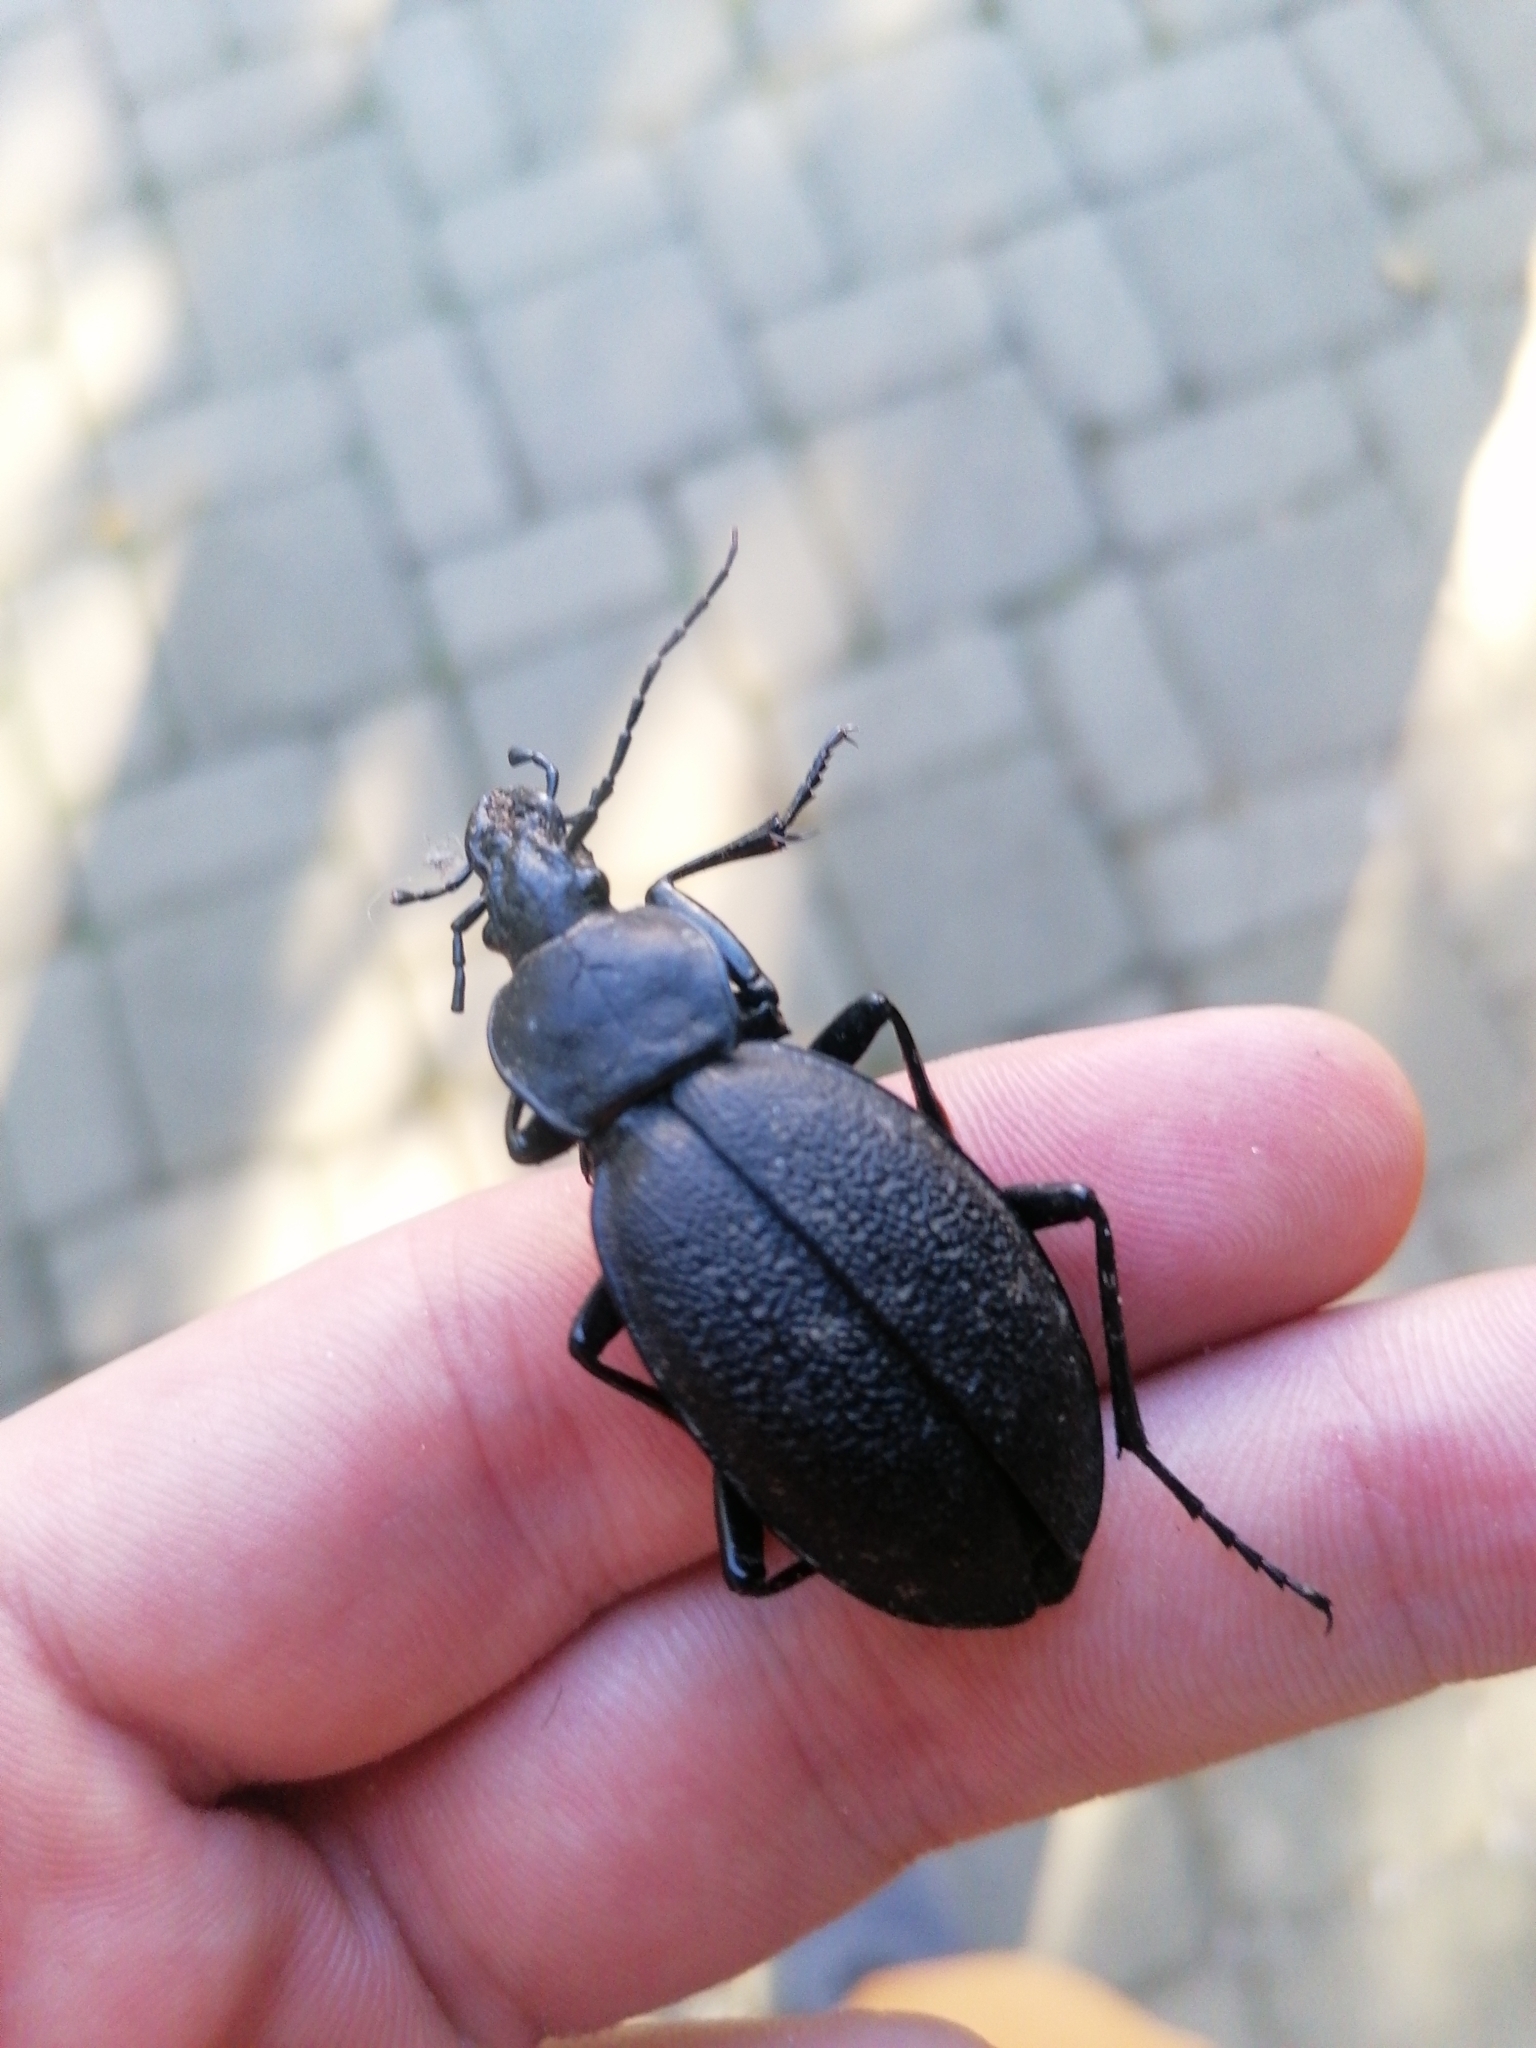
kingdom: Animalia
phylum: Arthropoda
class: Insecta
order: Coleoptera
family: Carabidae
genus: Carabus
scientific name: Carabus coriaceus
